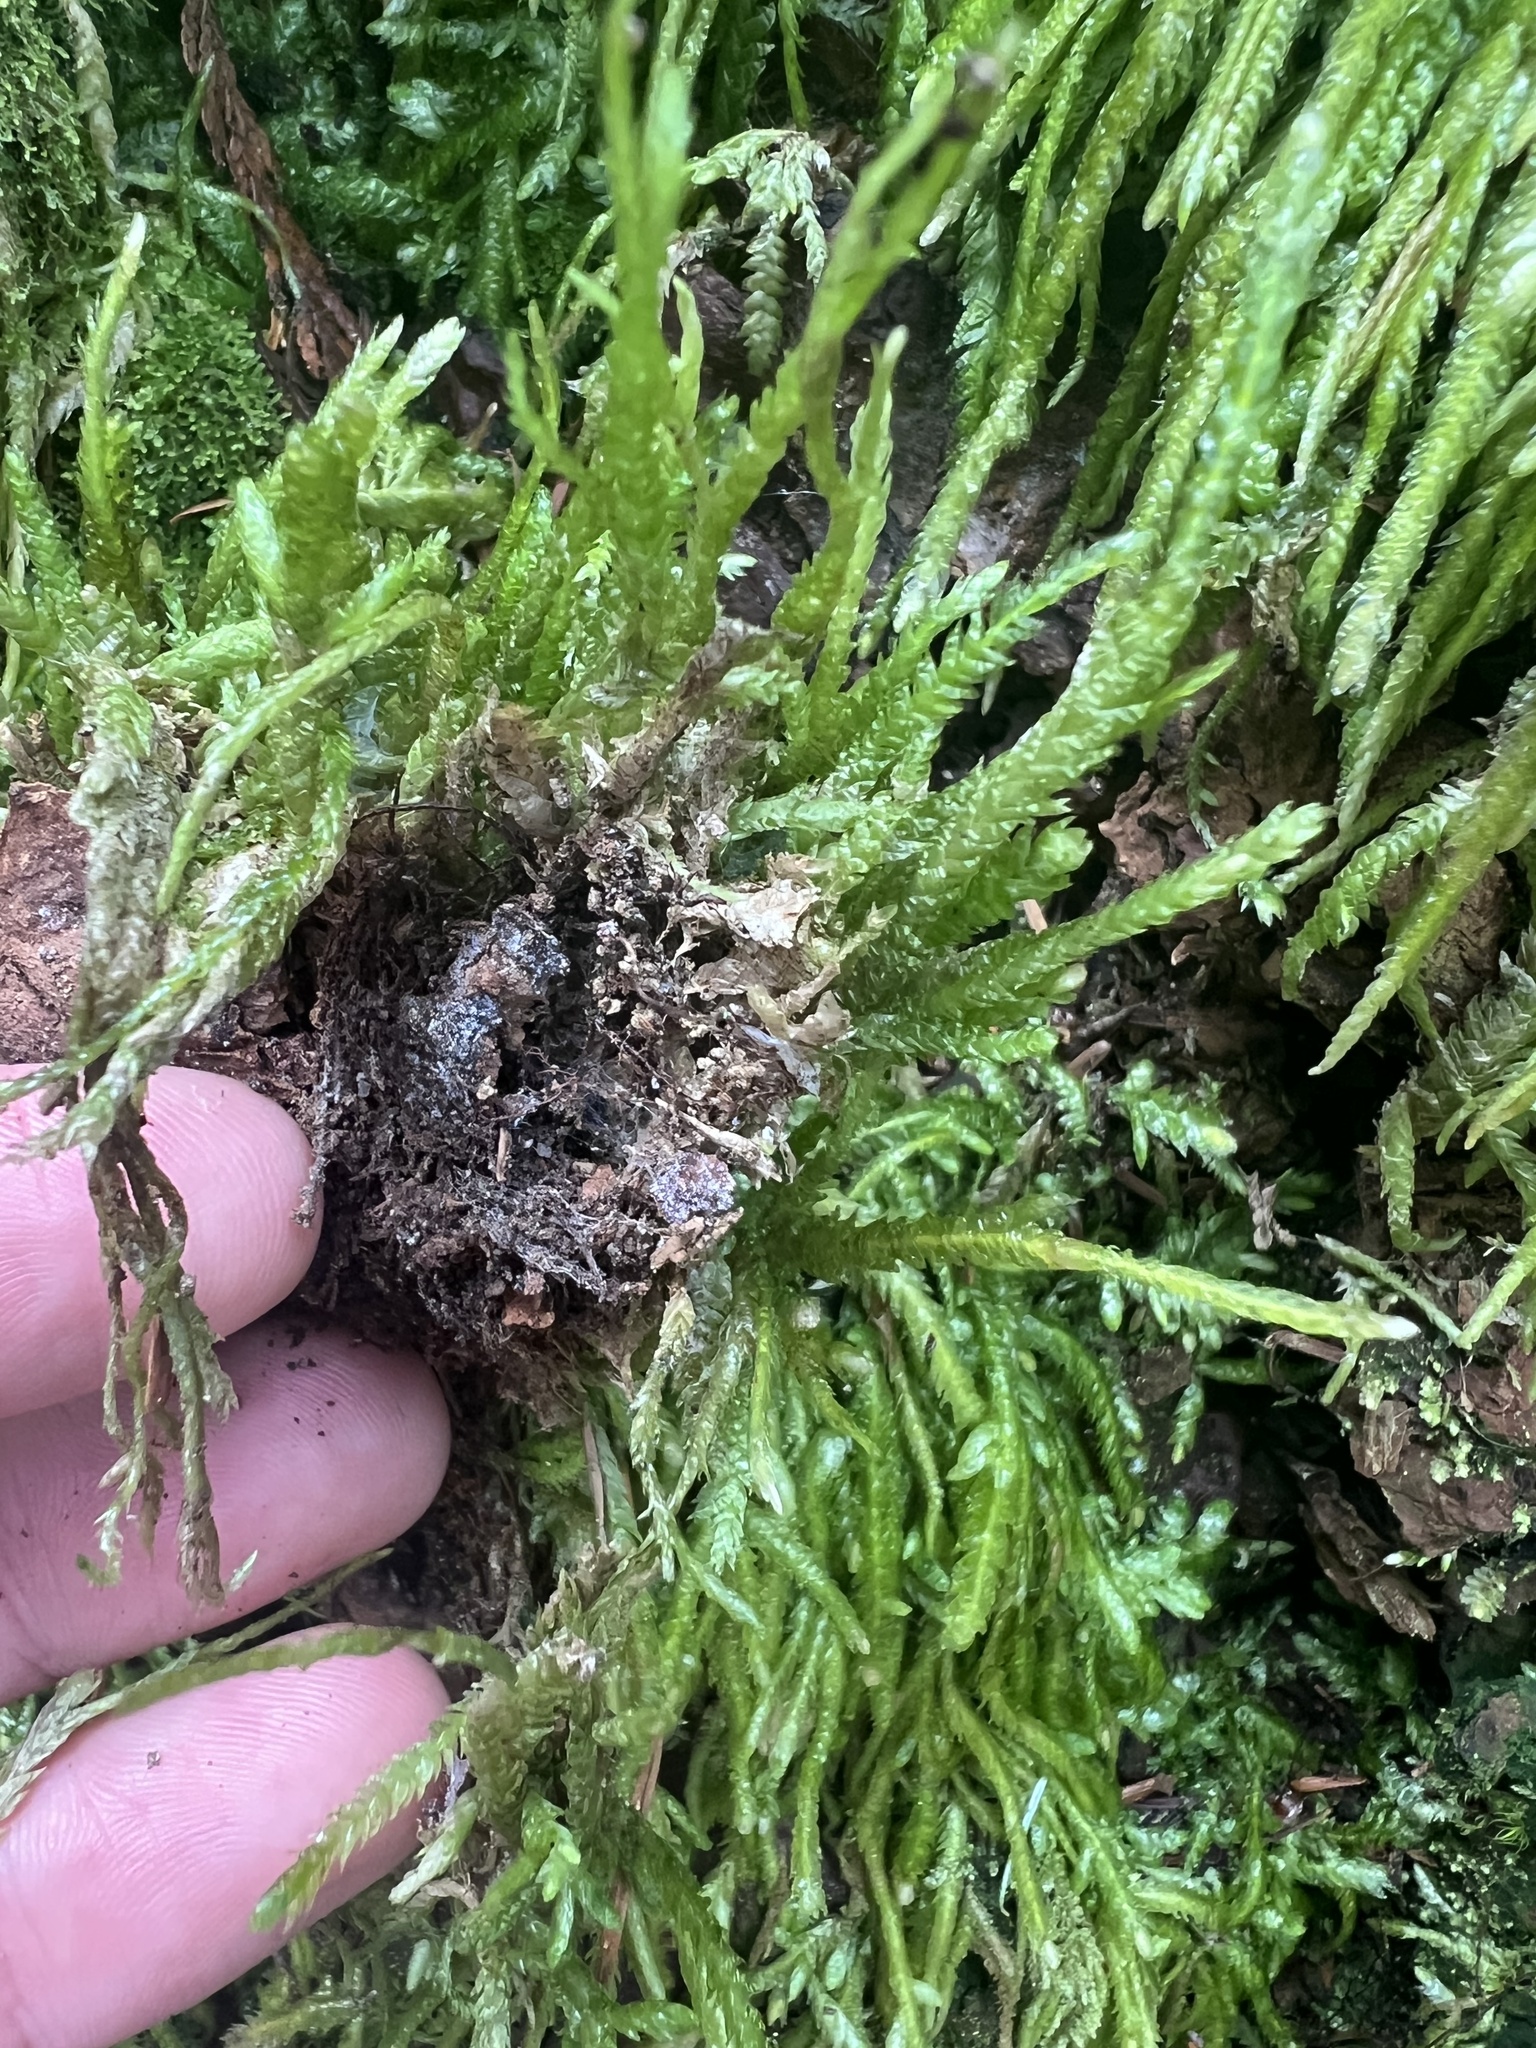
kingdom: Plantae
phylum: Bryophyta
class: Bryopsida
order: Hypnales
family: Plagiotheciaceae
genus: Plagiothecium
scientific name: Plagiothecium undulatum
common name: Waved silk-moss
